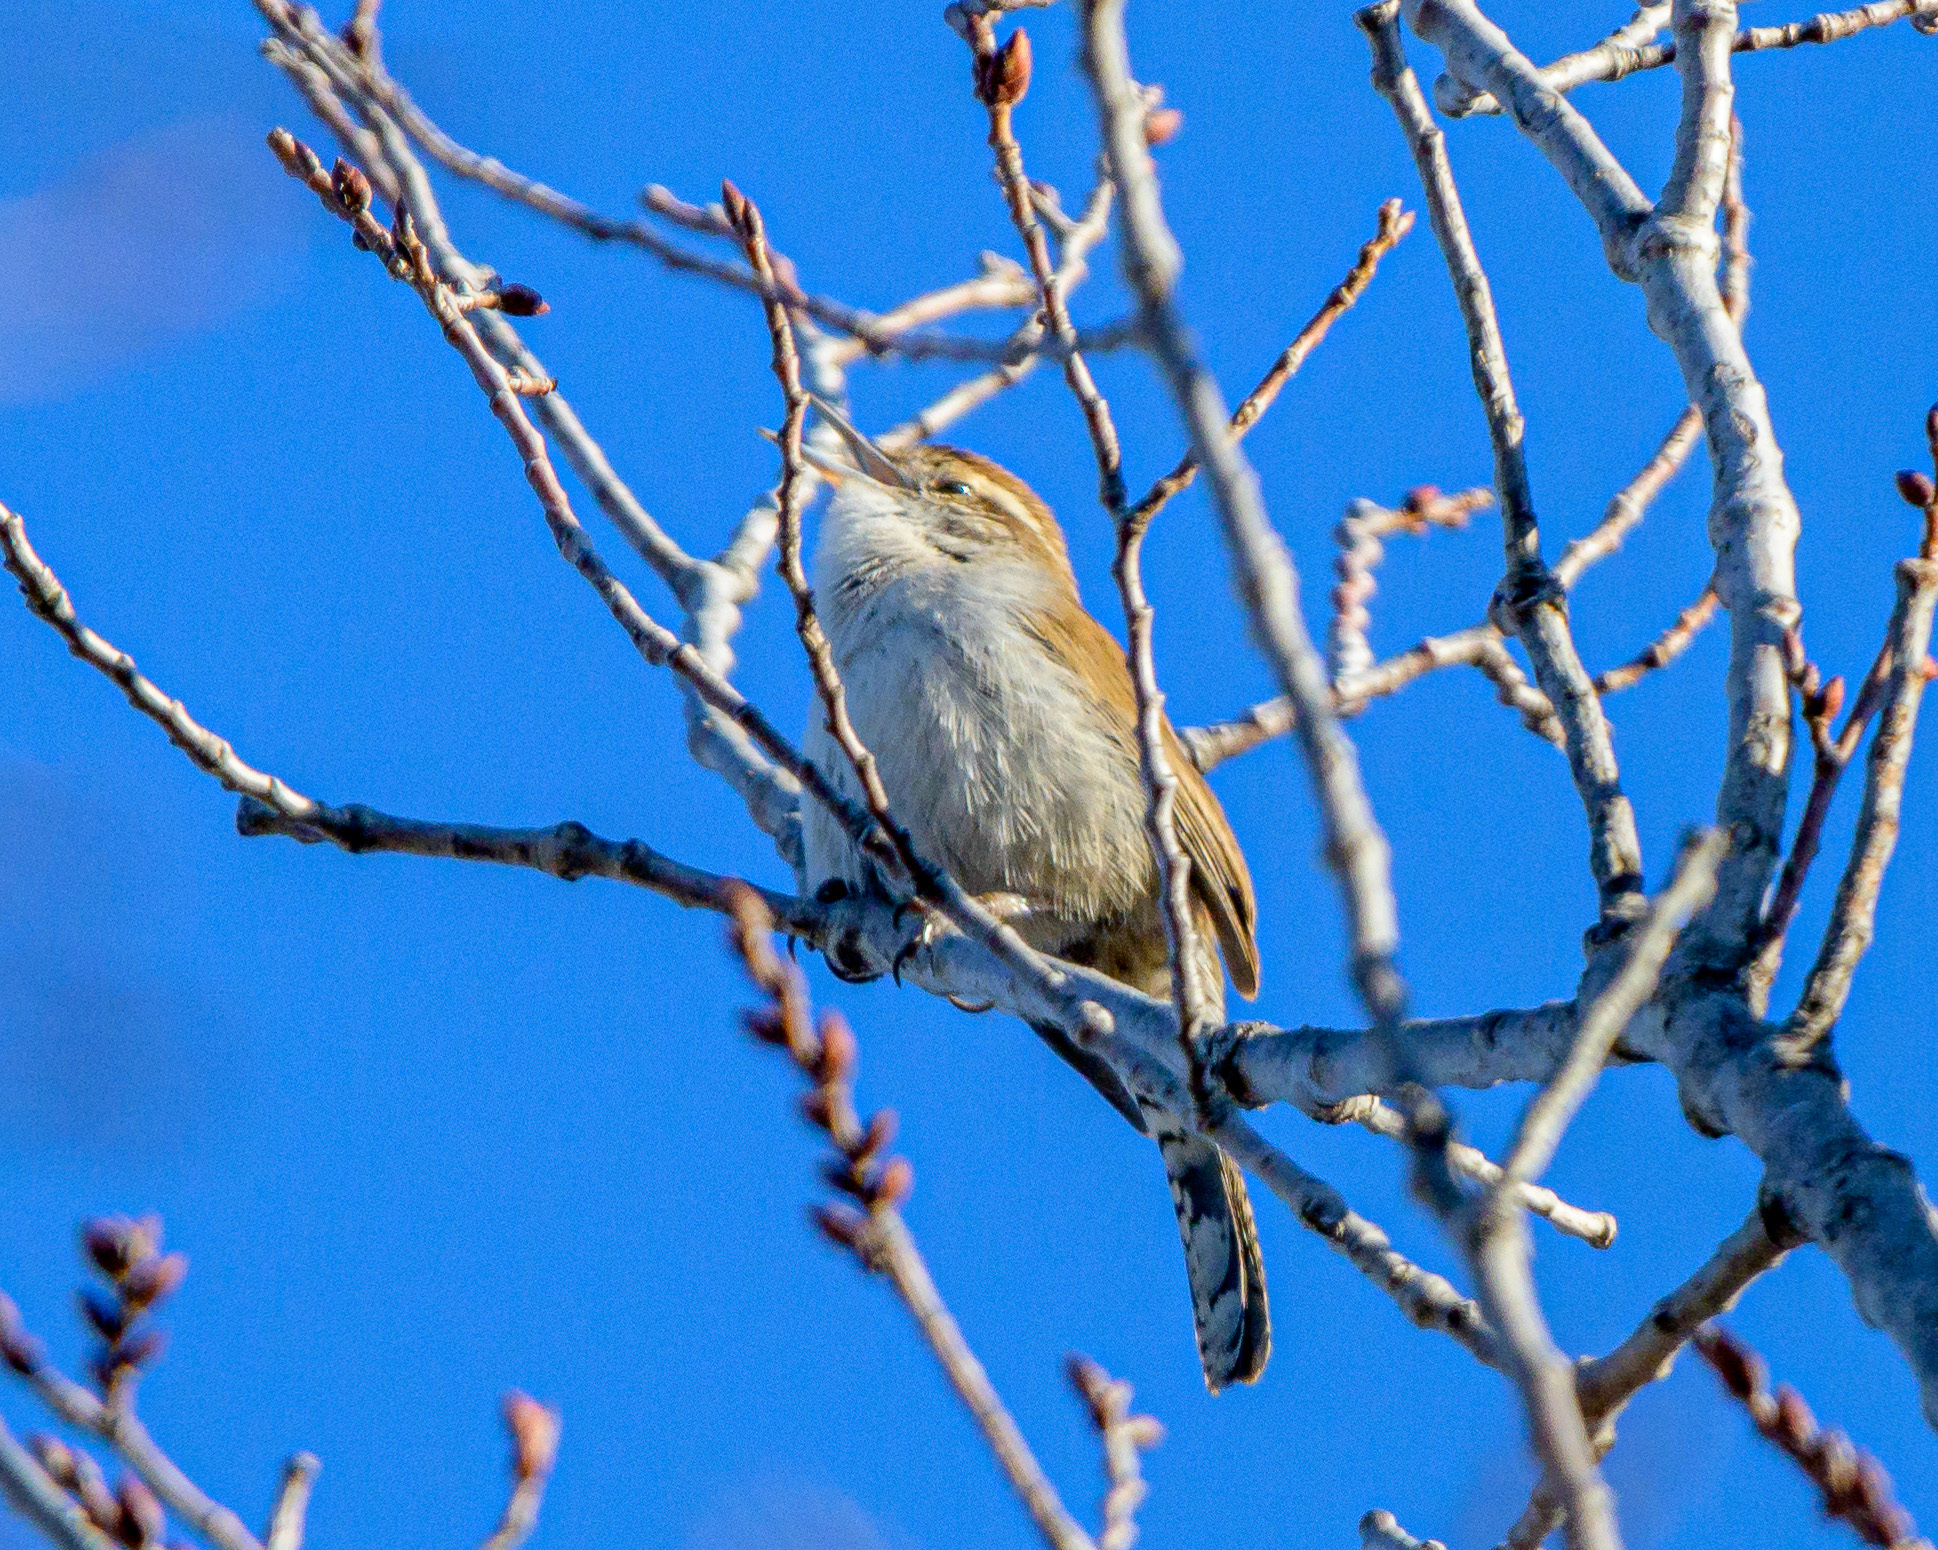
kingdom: Animalia
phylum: Chordata
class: Aves
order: Passeriformes
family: Troglodytidae
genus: Thryomanes
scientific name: Thryomanes bewickii
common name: Bewick's wren
